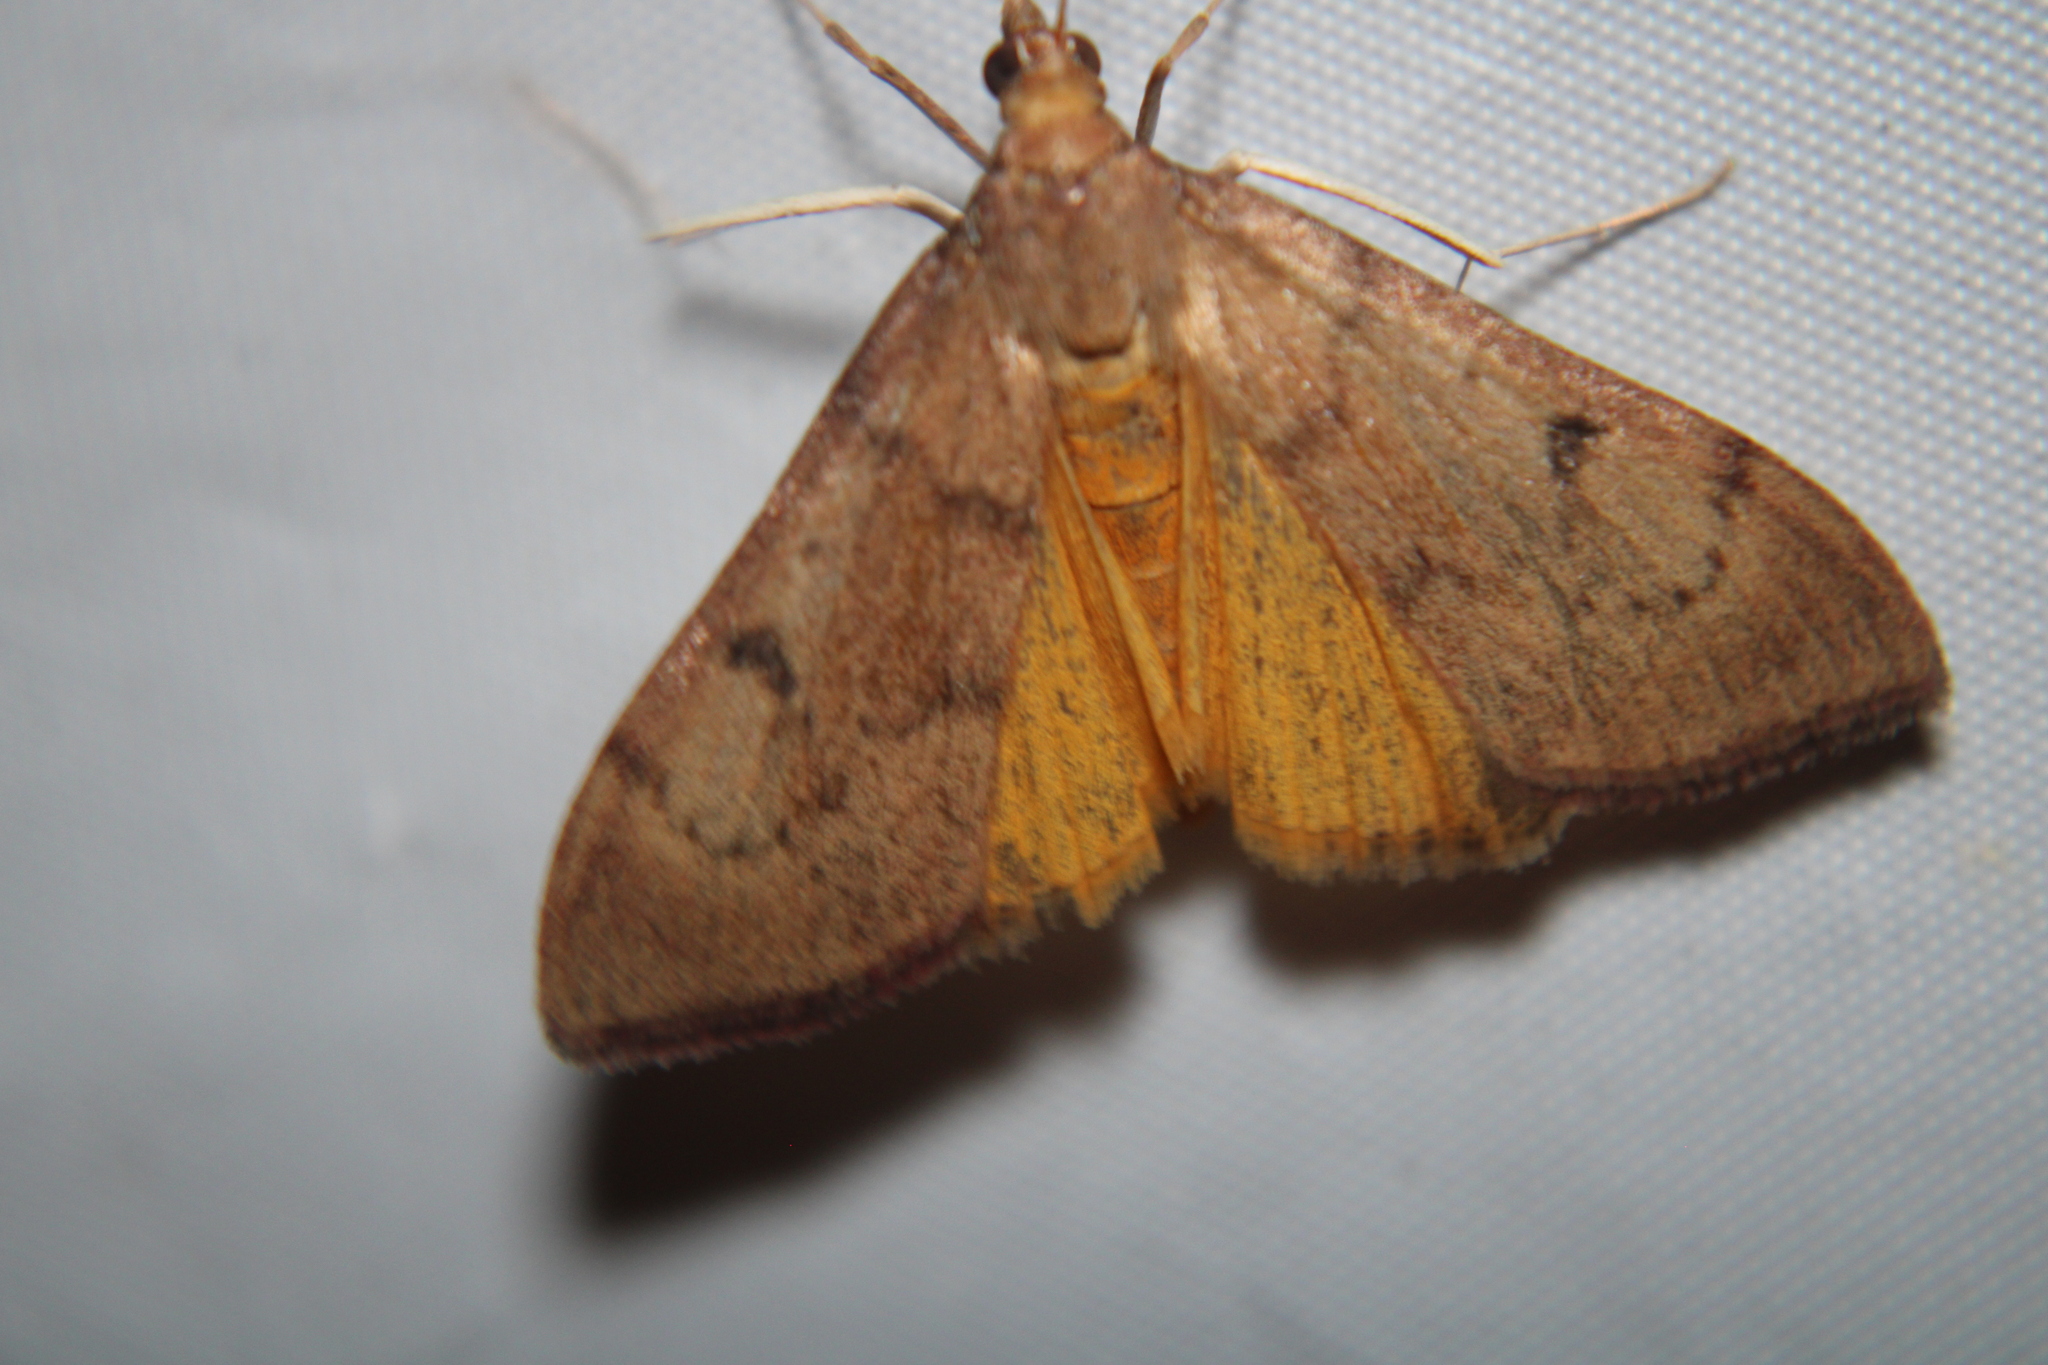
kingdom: Animalia
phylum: Arthropoda
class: Insecta
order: Lepidoptera
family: Crambidae
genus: Uresiphita
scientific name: Uresiphita reversalis
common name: Genista broom moth
